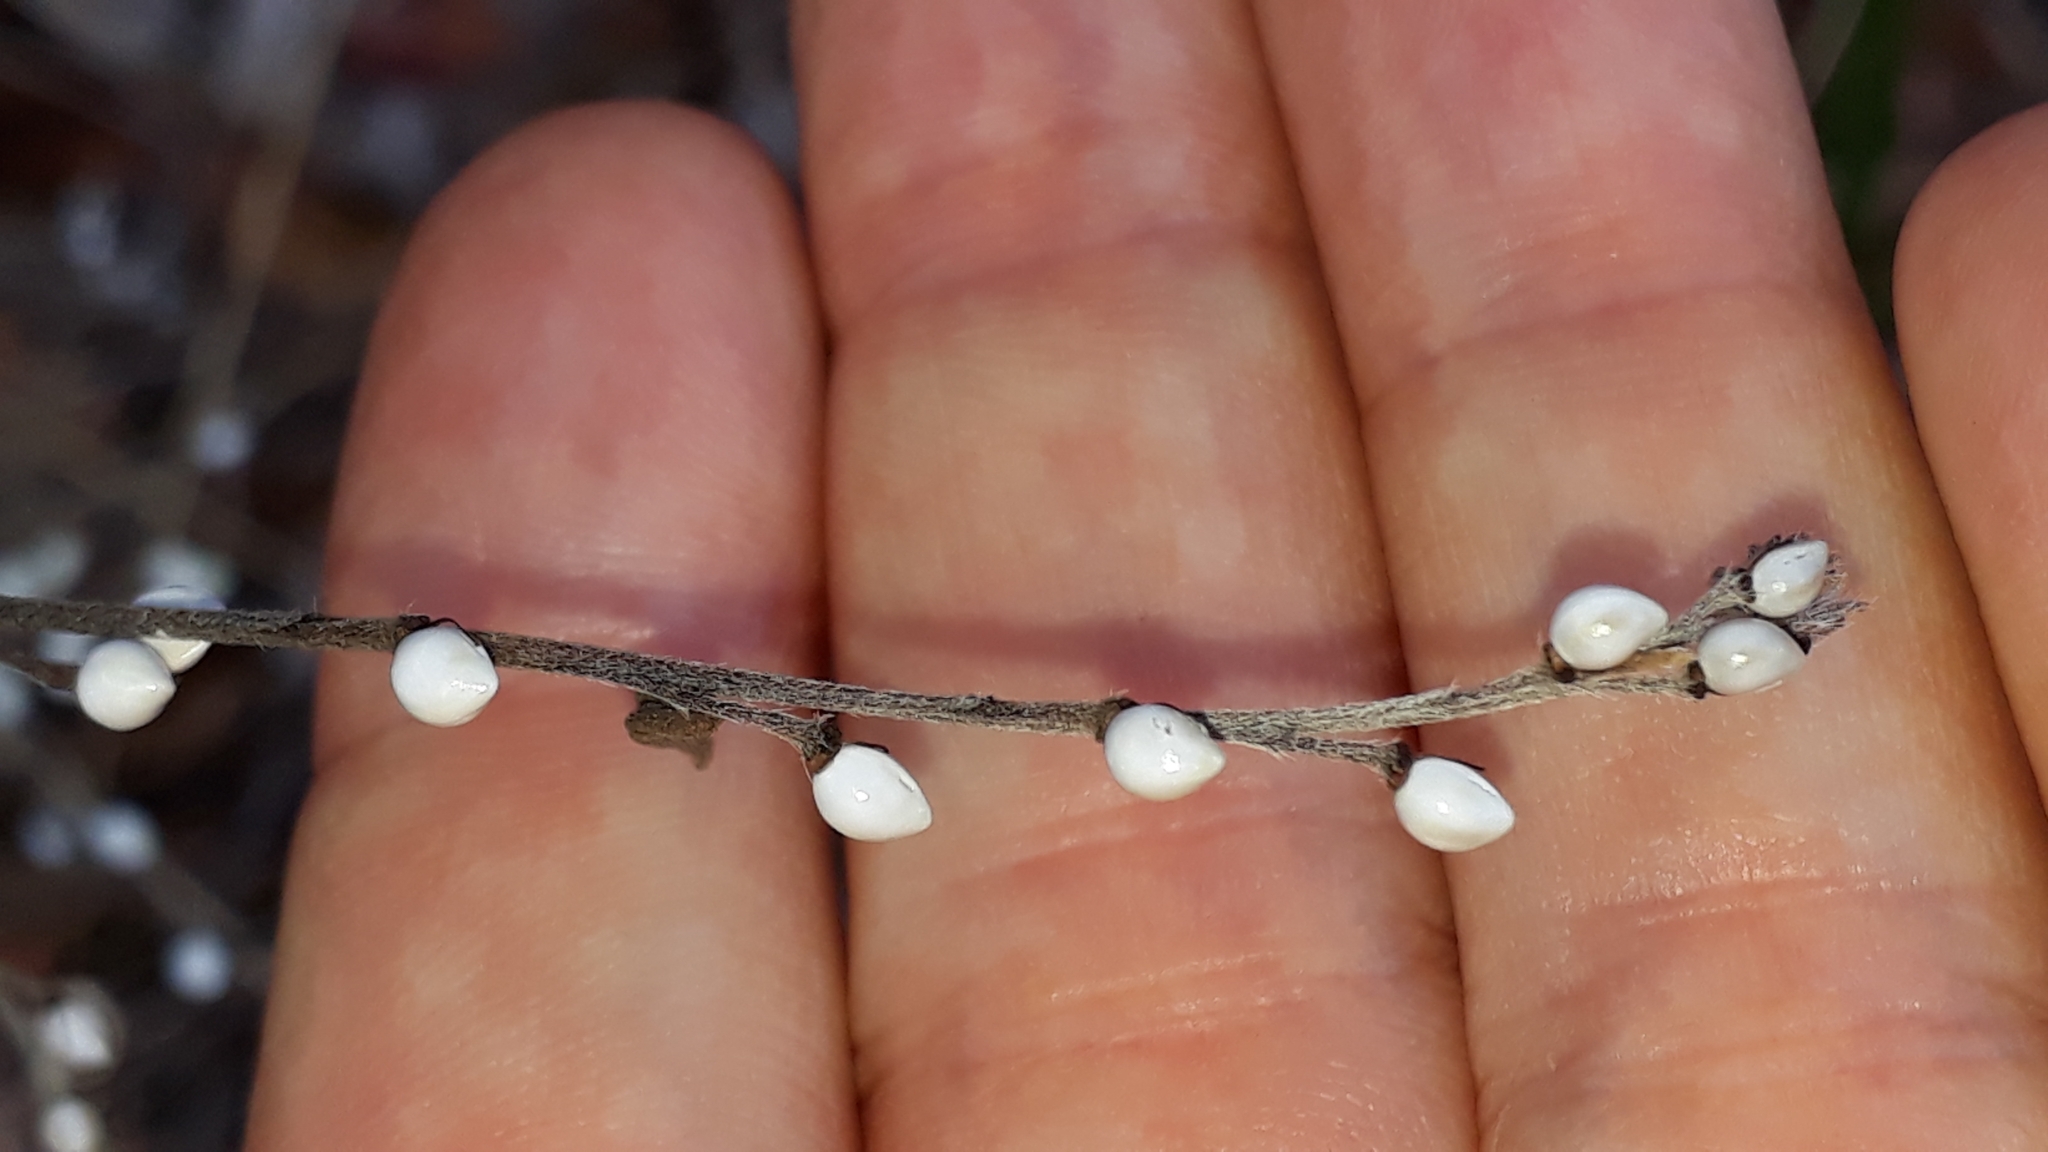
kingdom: Plantae
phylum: Tracheophyta
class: Magnoliopsida
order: Boraginales
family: Boraginaceae
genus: Lithospermum
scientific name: Lithospermum officinale
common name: Common gromwell
